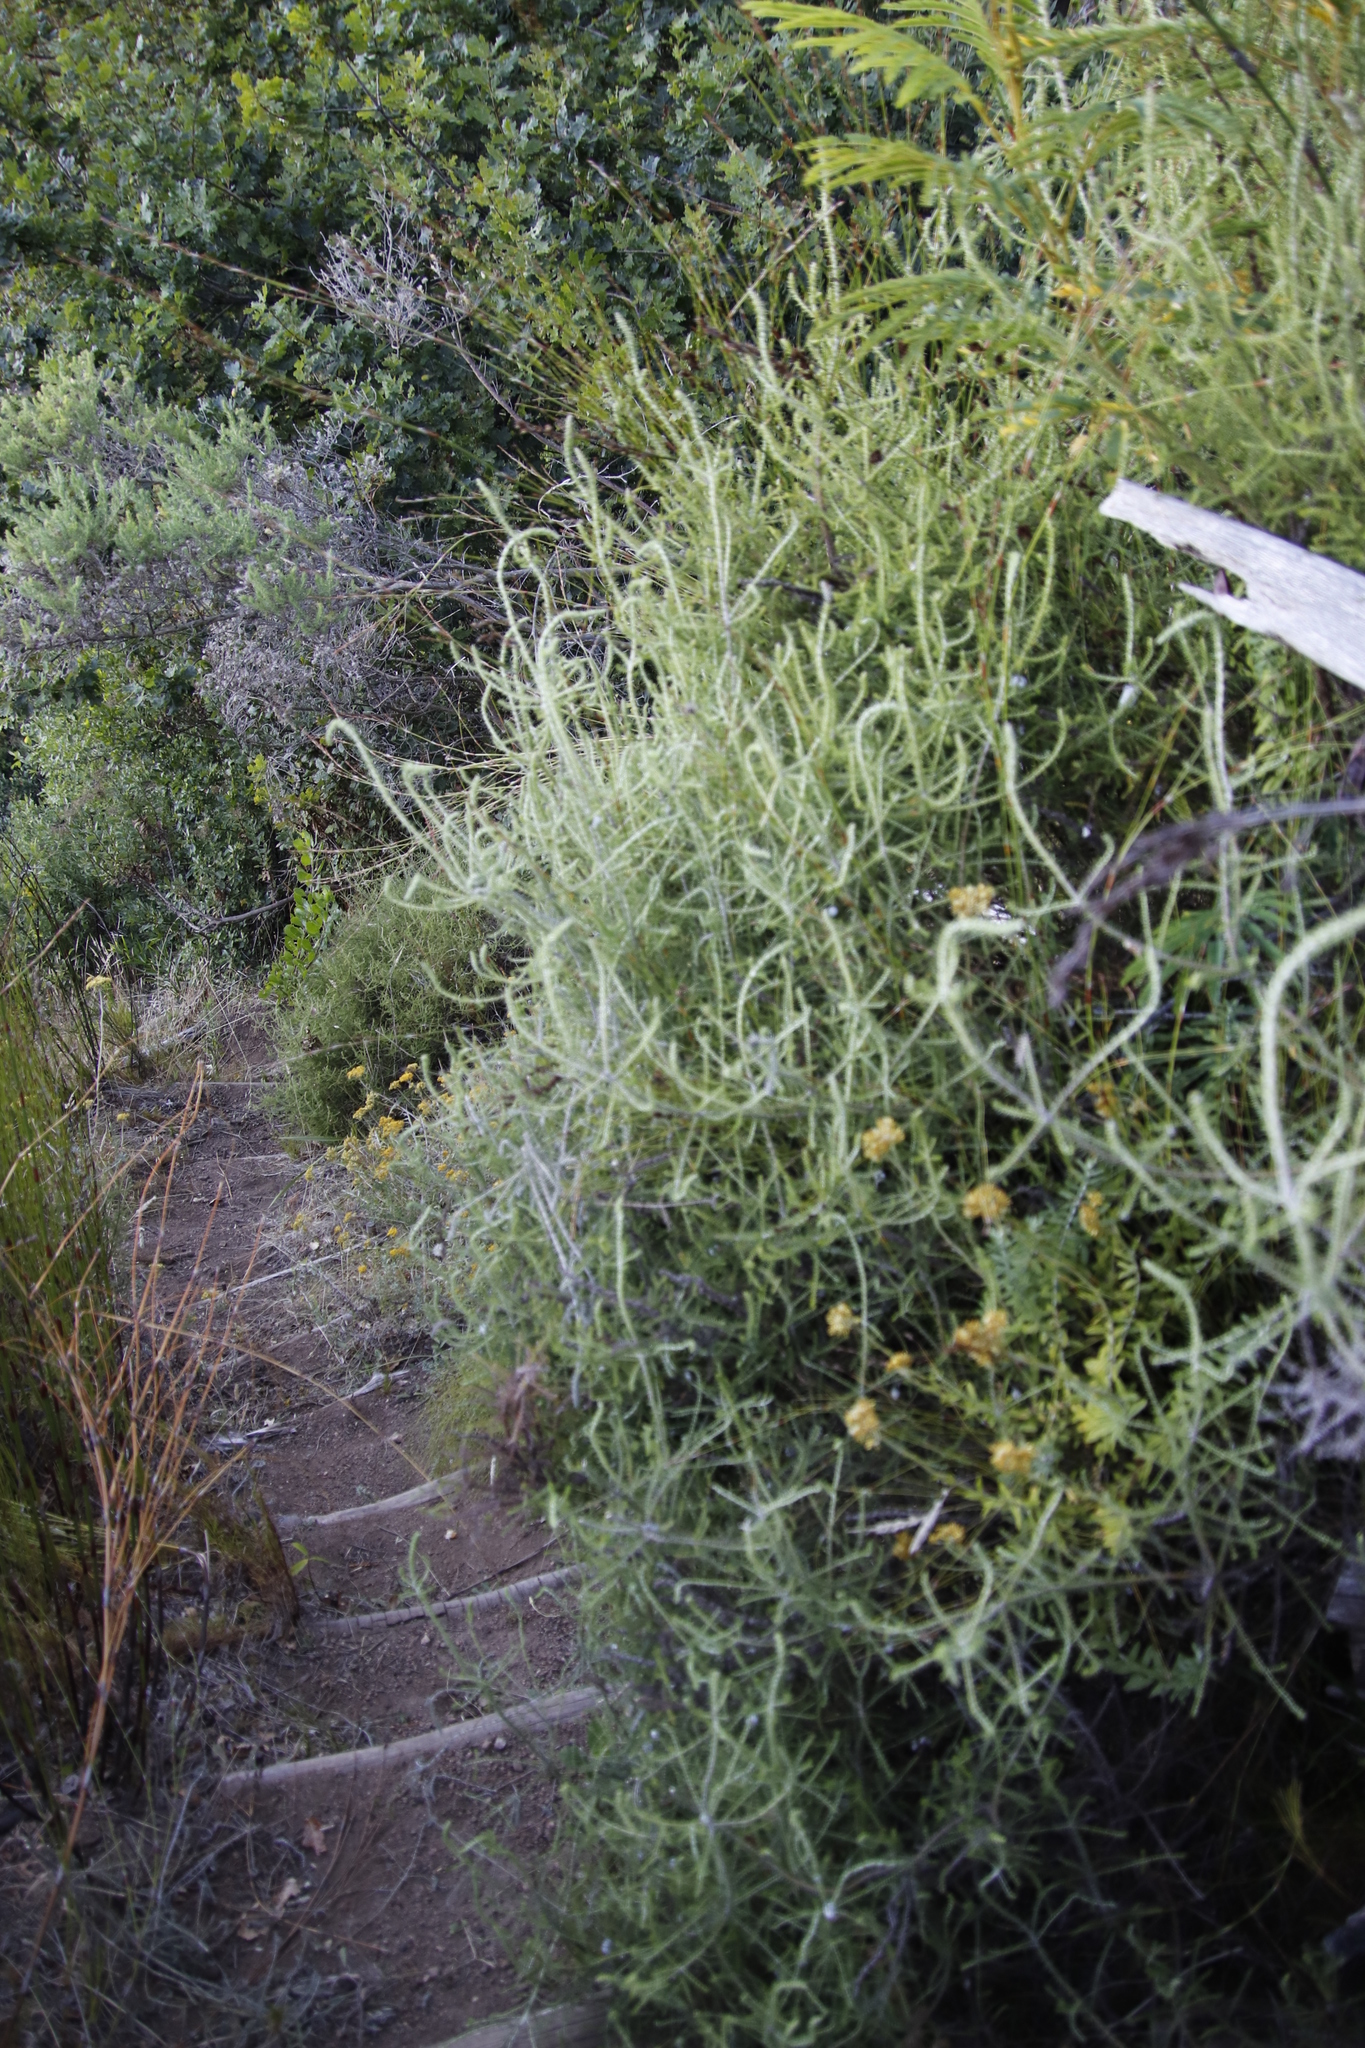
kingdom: Plantae
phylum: Tracheophyta
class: Magnoliopsida
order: Asterales
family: Asteraceae
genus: Seriphium
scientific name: Seriphium cinereum
